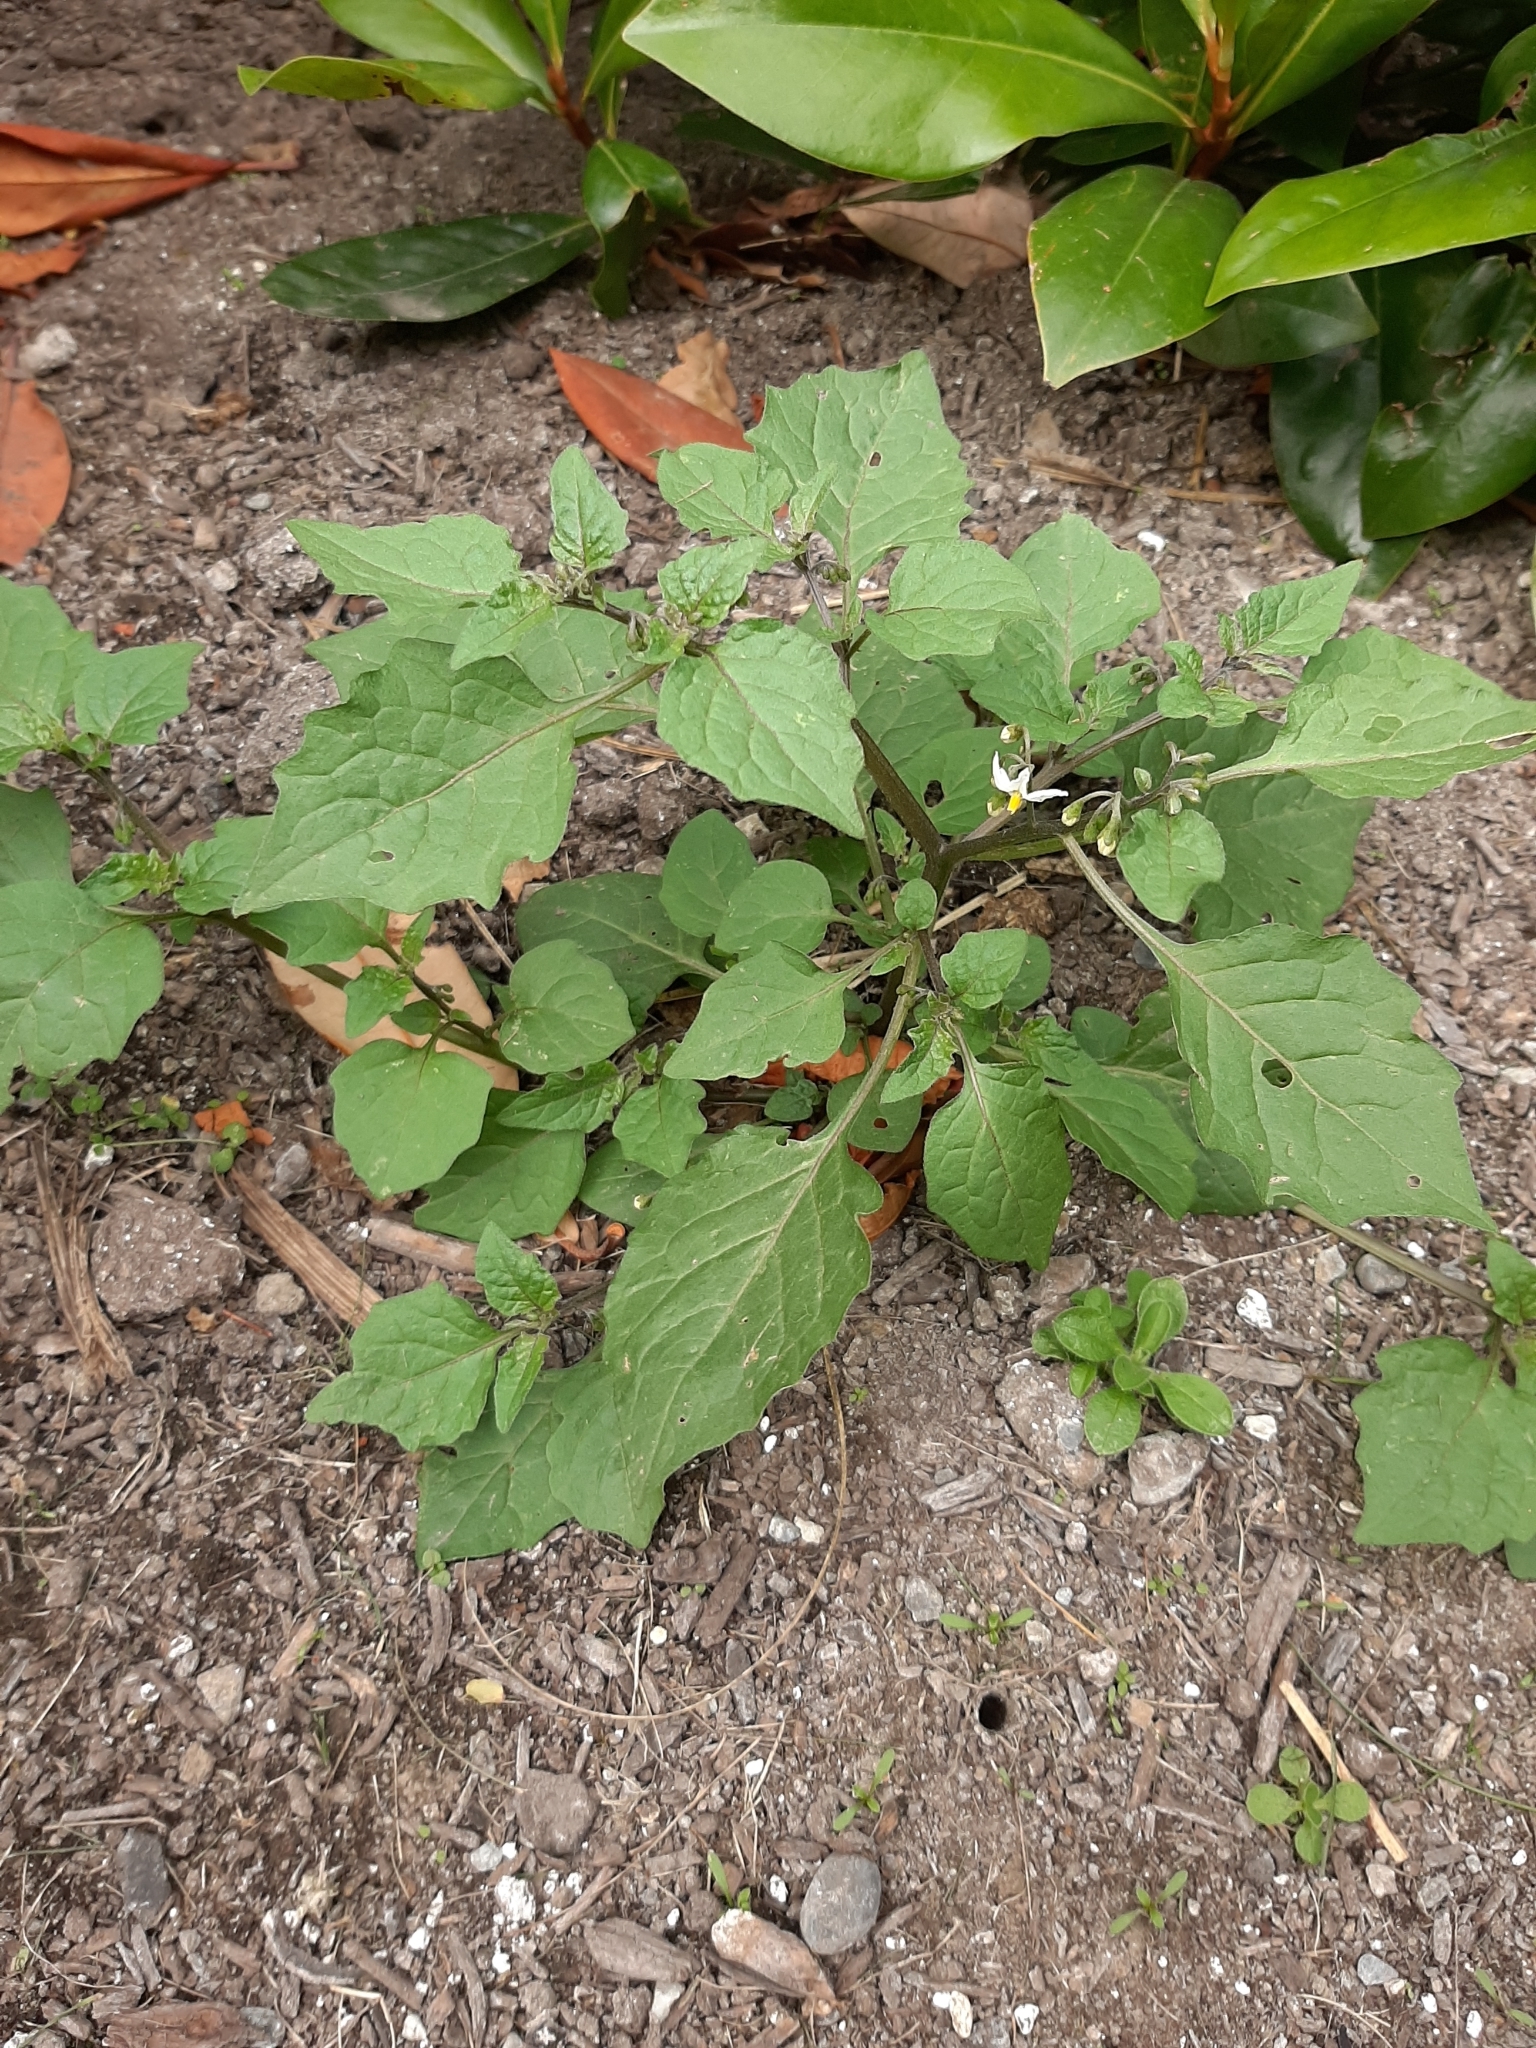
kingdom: Plantae
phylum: Tracheophyta
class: Magnoliopsida
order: Solanales
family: Solanaceae
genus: Solanum
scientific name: Solanum nigrum
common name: Black nightshade
